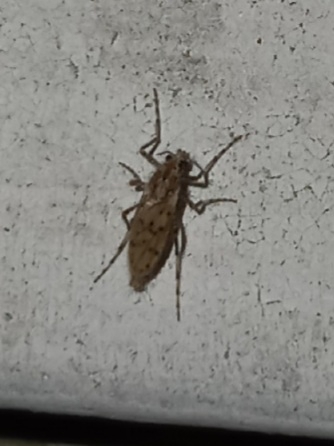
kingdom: Animalia
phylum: Arthropoda
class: Insecta
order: Diptera
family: Chaoboridae
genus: Chaoborus
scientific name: Chaoborus punctipennis
